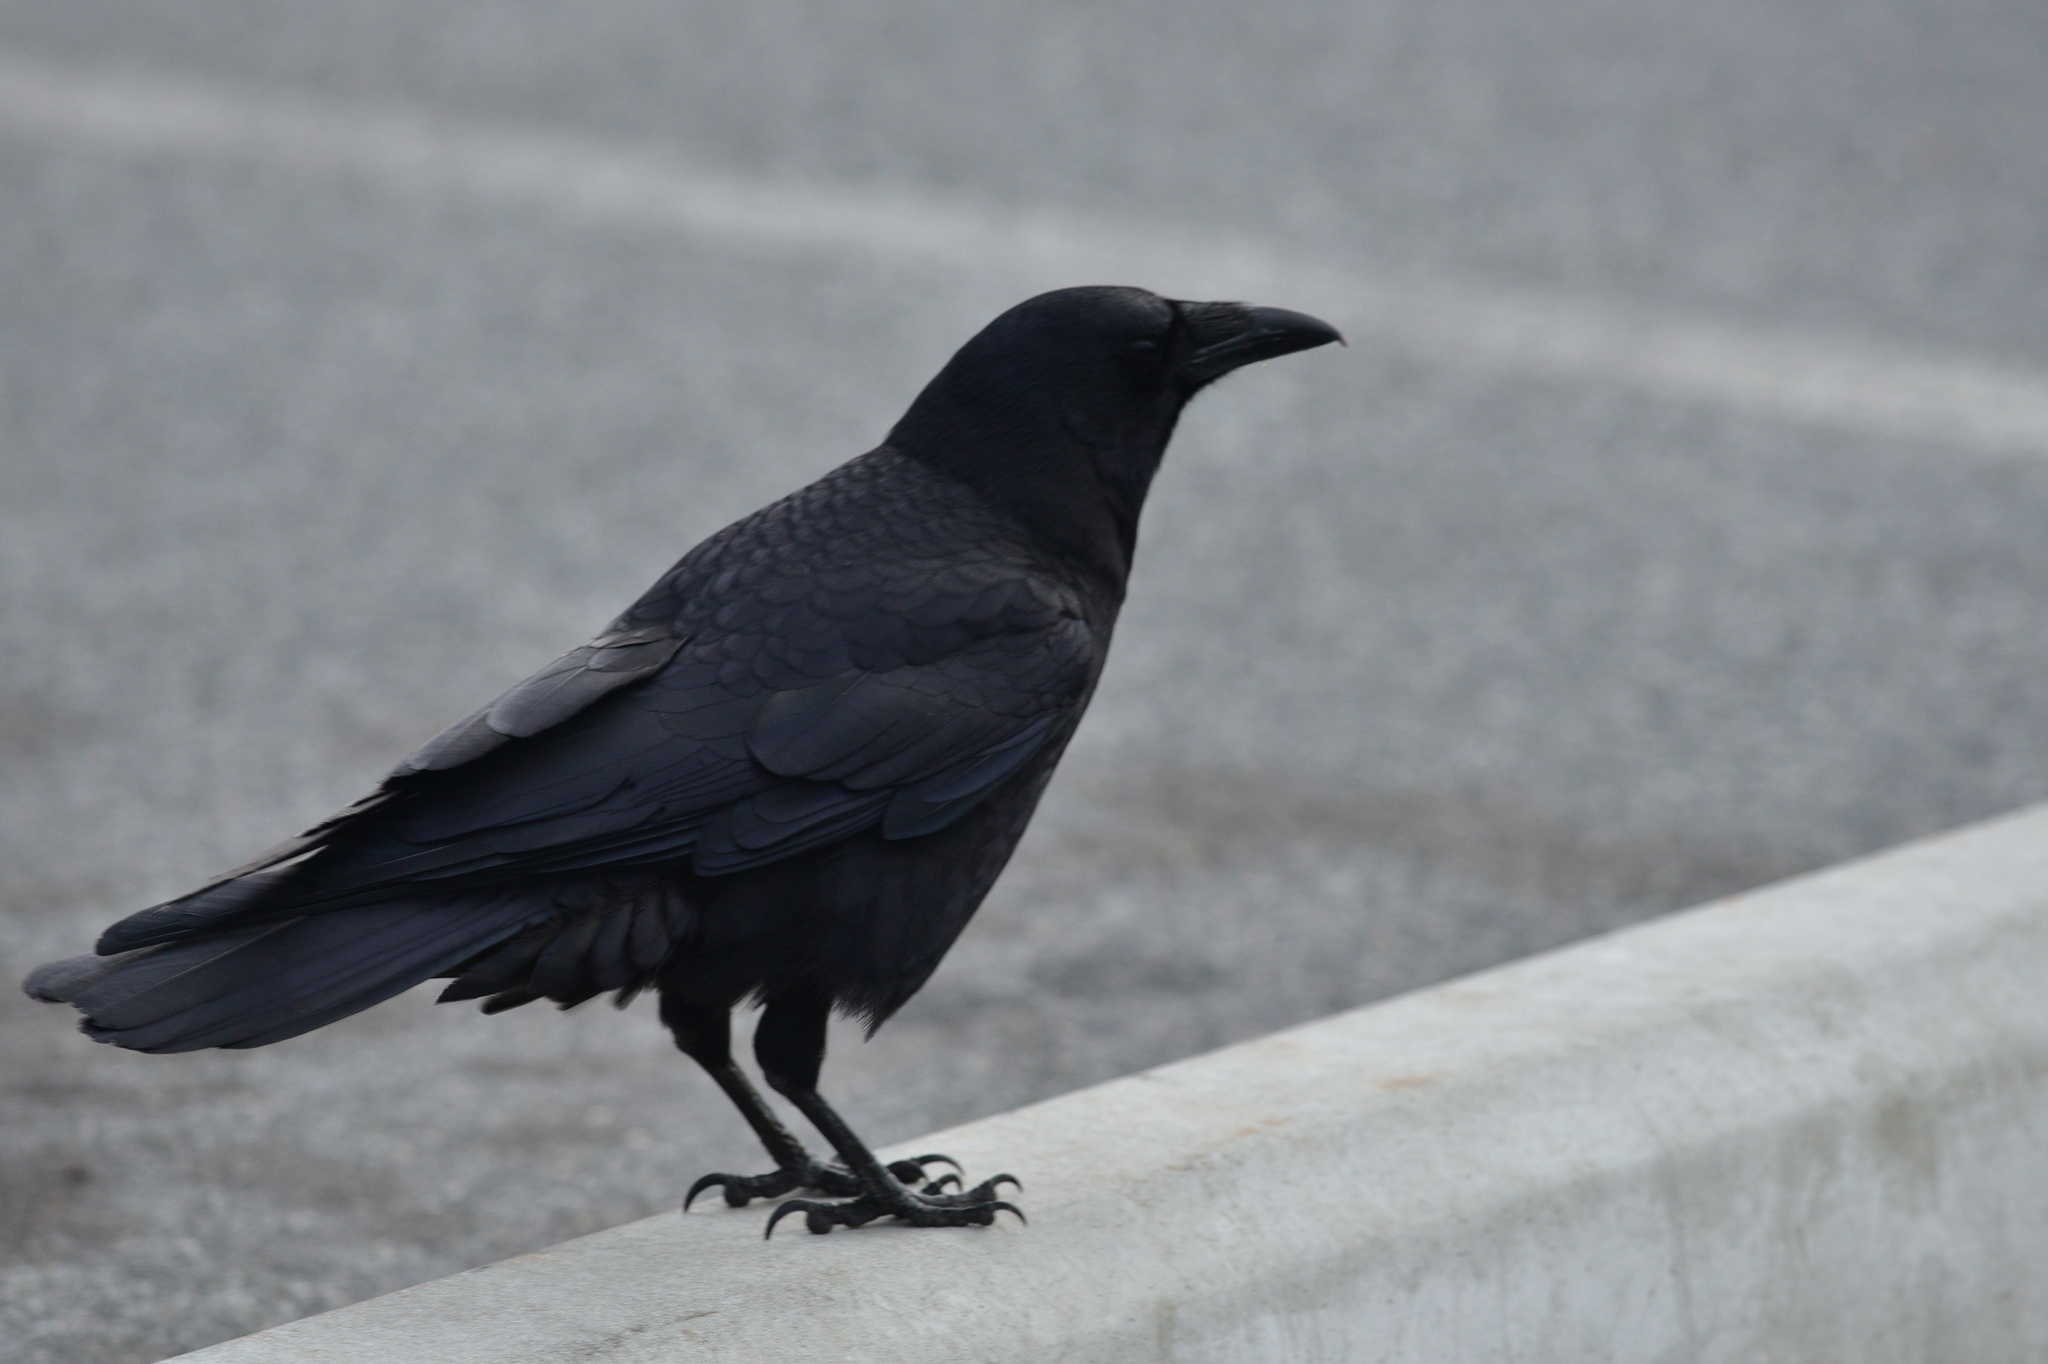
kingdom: Animalia
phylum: Chordata
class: Aves
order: Passeriformes
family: Corvidae
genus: Corvus
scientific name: Corvus brachyrhynchos
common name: American crow
